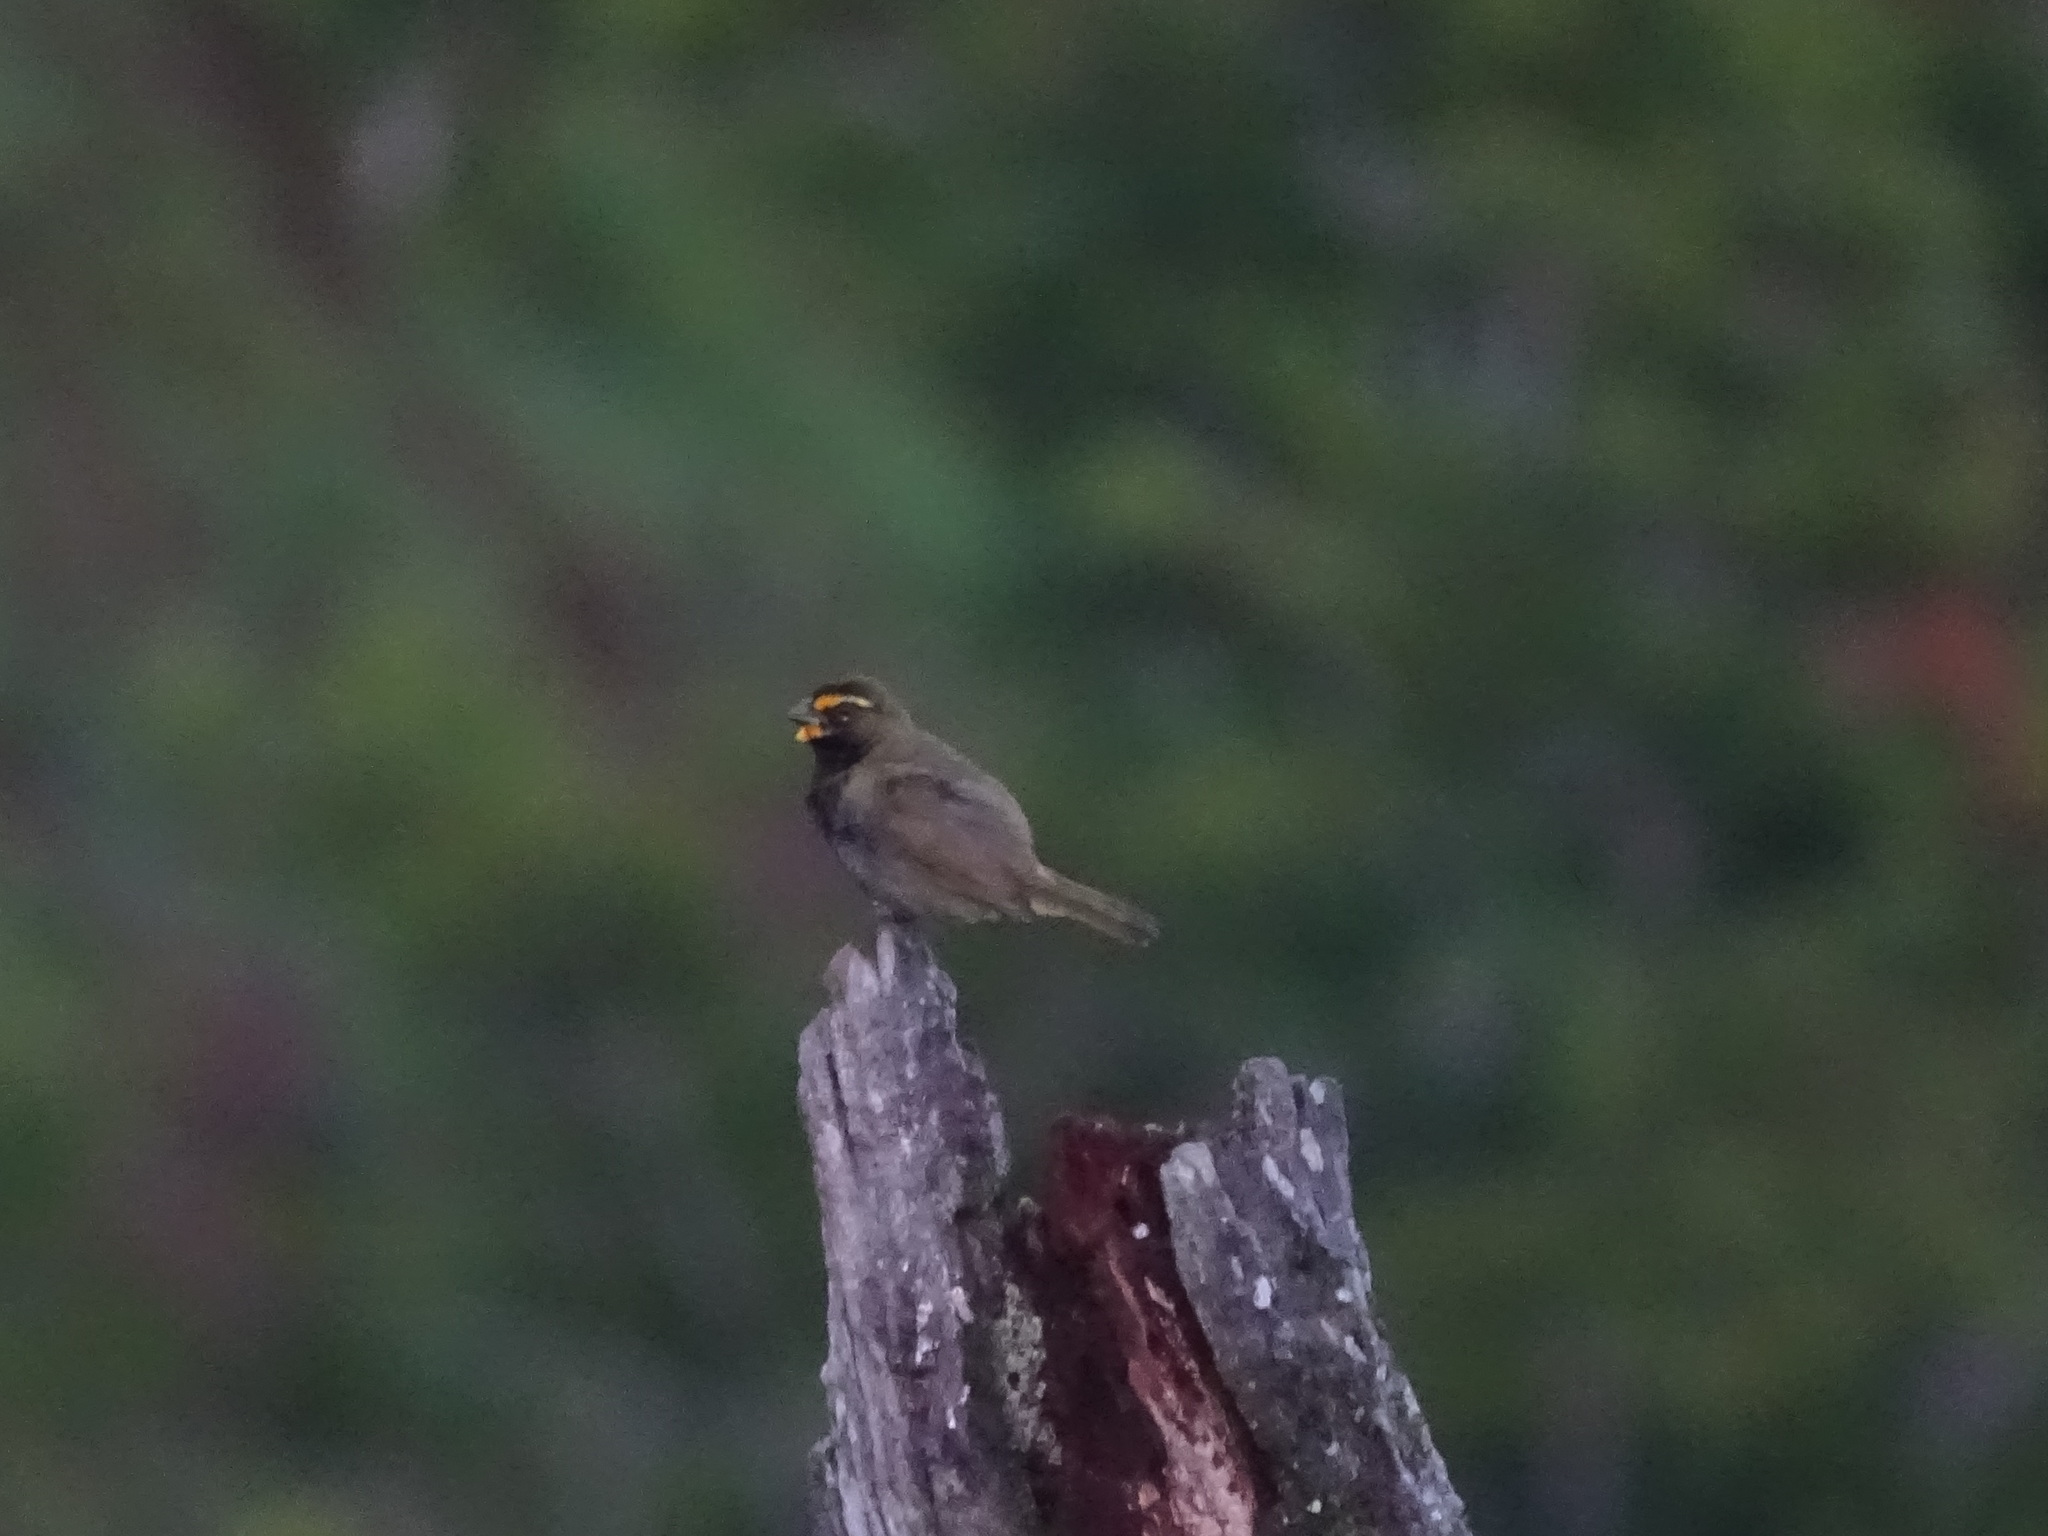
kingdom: Animalia
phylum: Chordata
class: Aves
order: Passeriformes
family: Thraupidae
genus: Tiaris
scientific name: Tiaris olivaceus
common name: Yellow-faced grassquit
